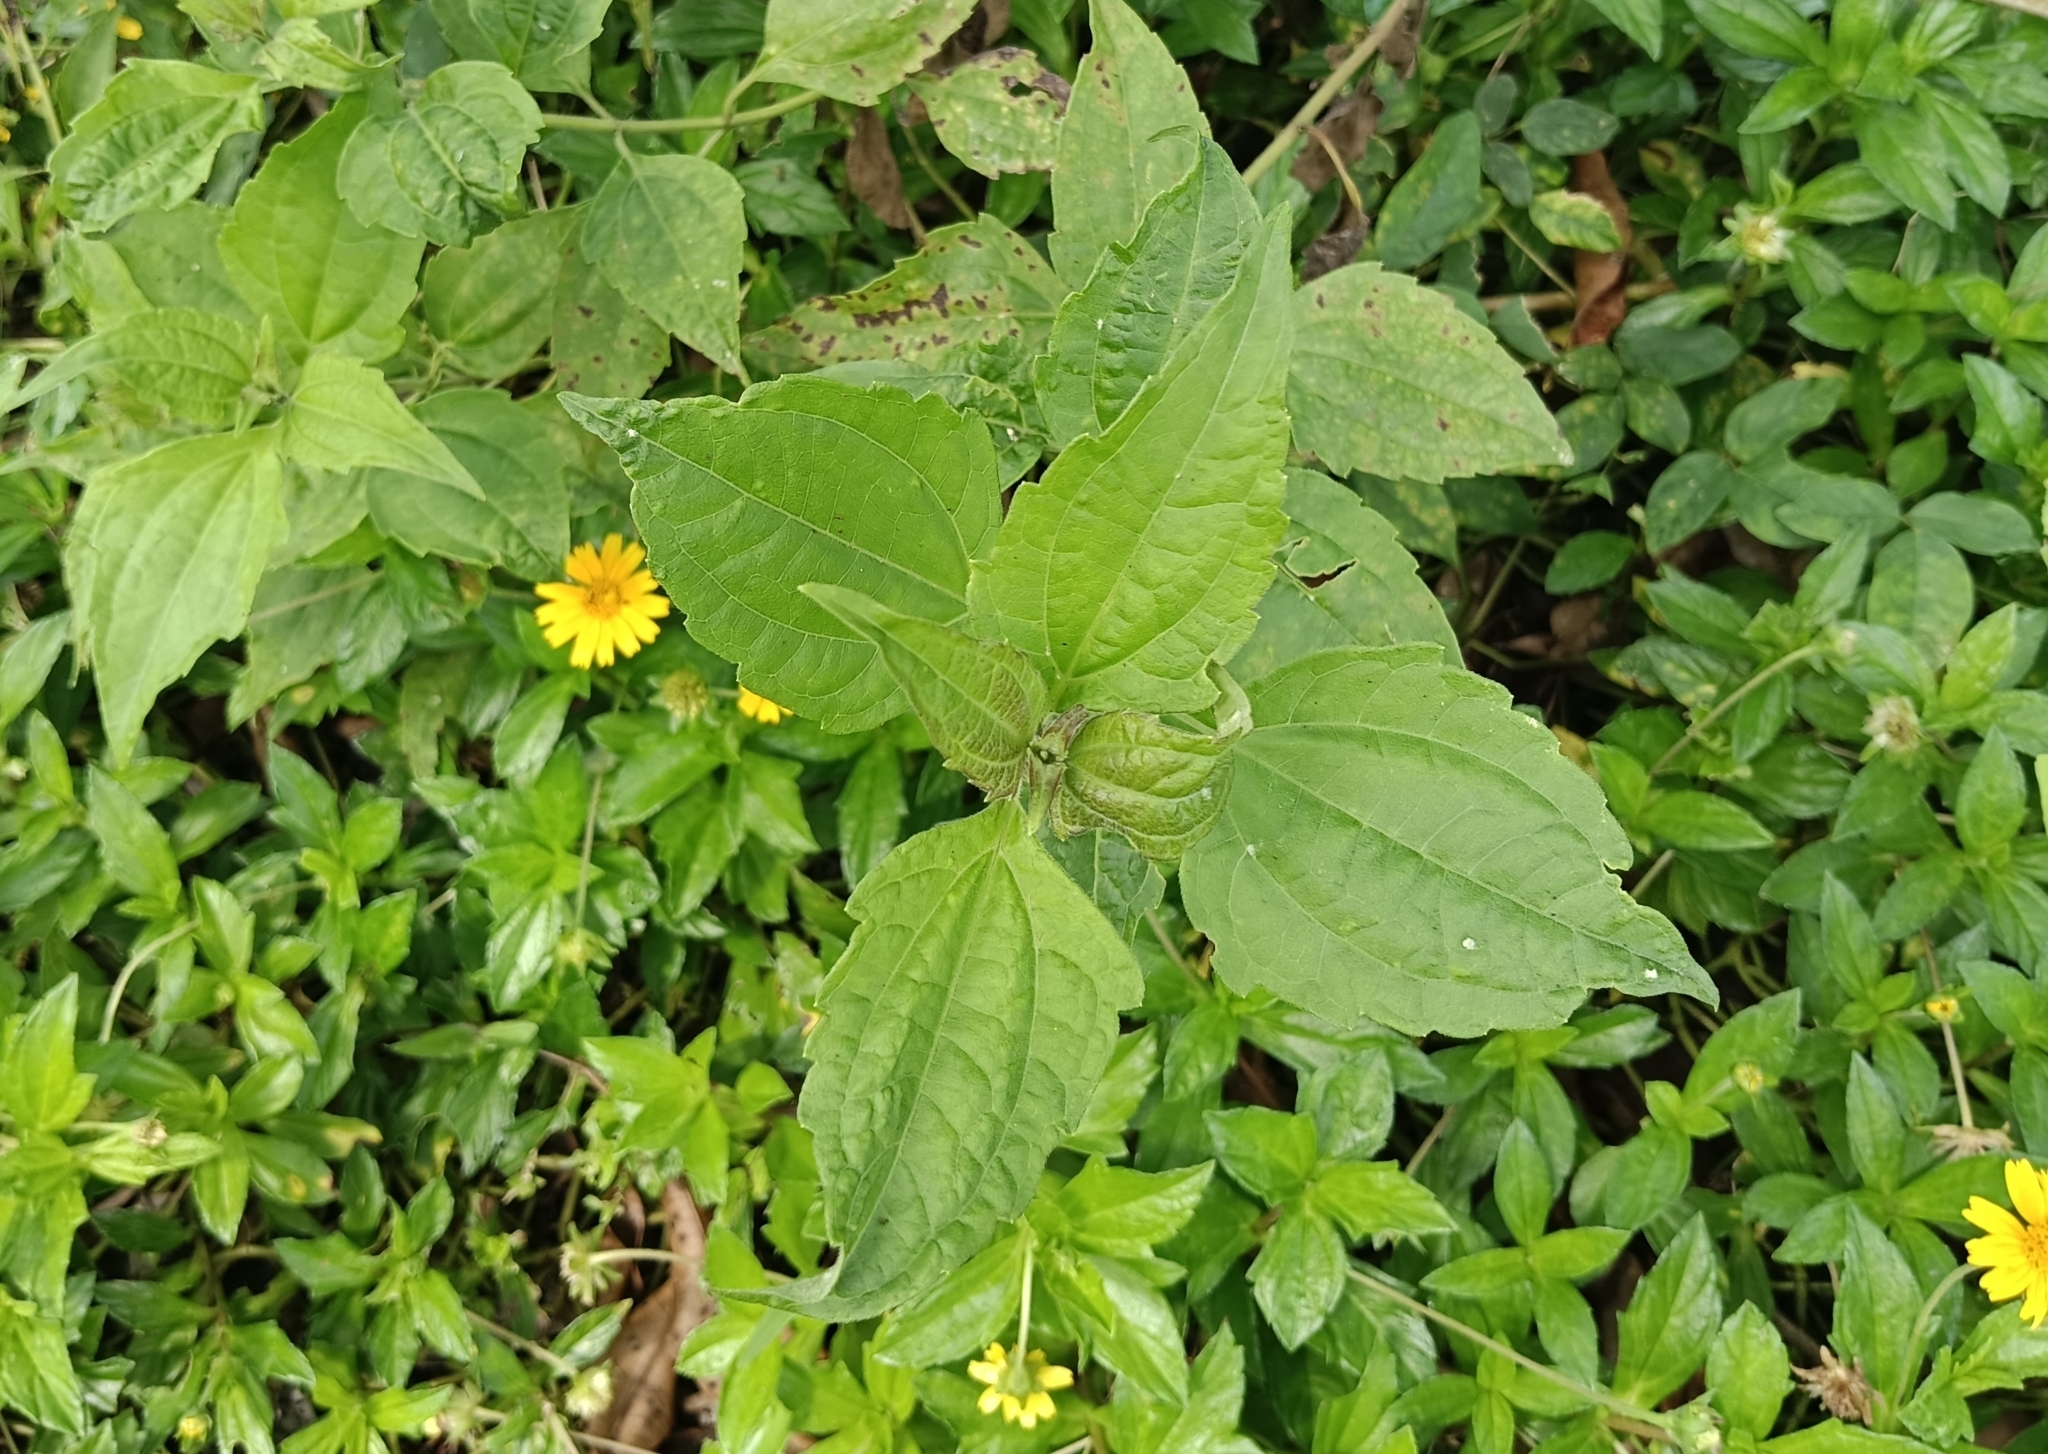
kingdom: Plantae
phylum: Tracheophyta
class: Magnoliopsida
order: Asterales
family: Asteraceae
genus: Chromolaena
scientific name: Chromolaena odorata
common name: Siamweed
